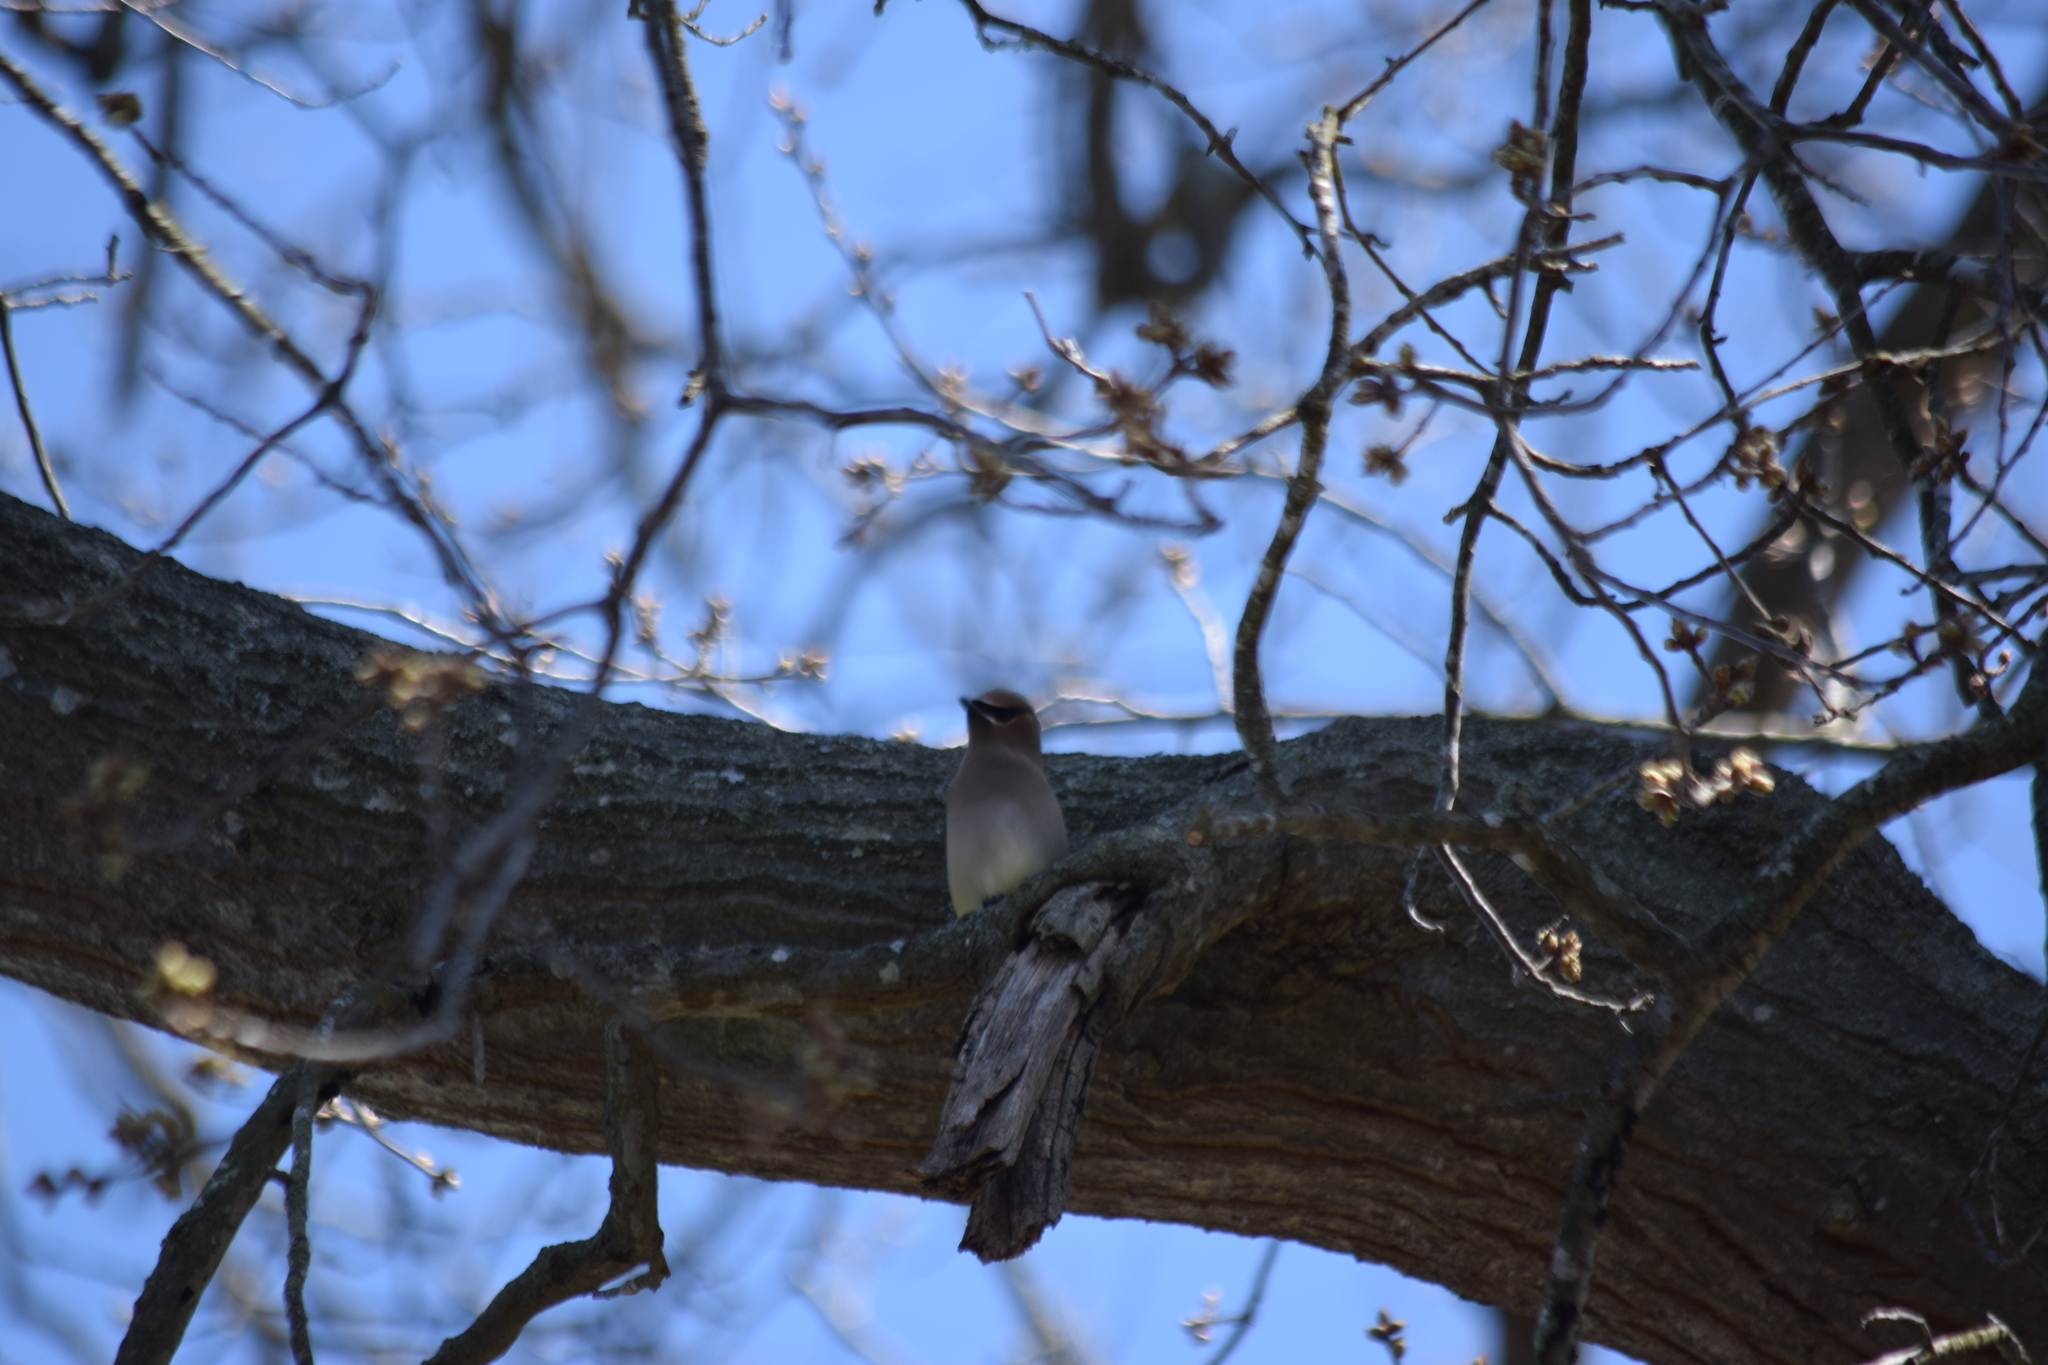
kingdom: Animalia
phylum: Chordata
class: Aves
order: Passeriformes
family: Bombycillidae
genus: Bombycilla
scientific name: Bombycilla cedrorum
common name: Cedar waxwing
